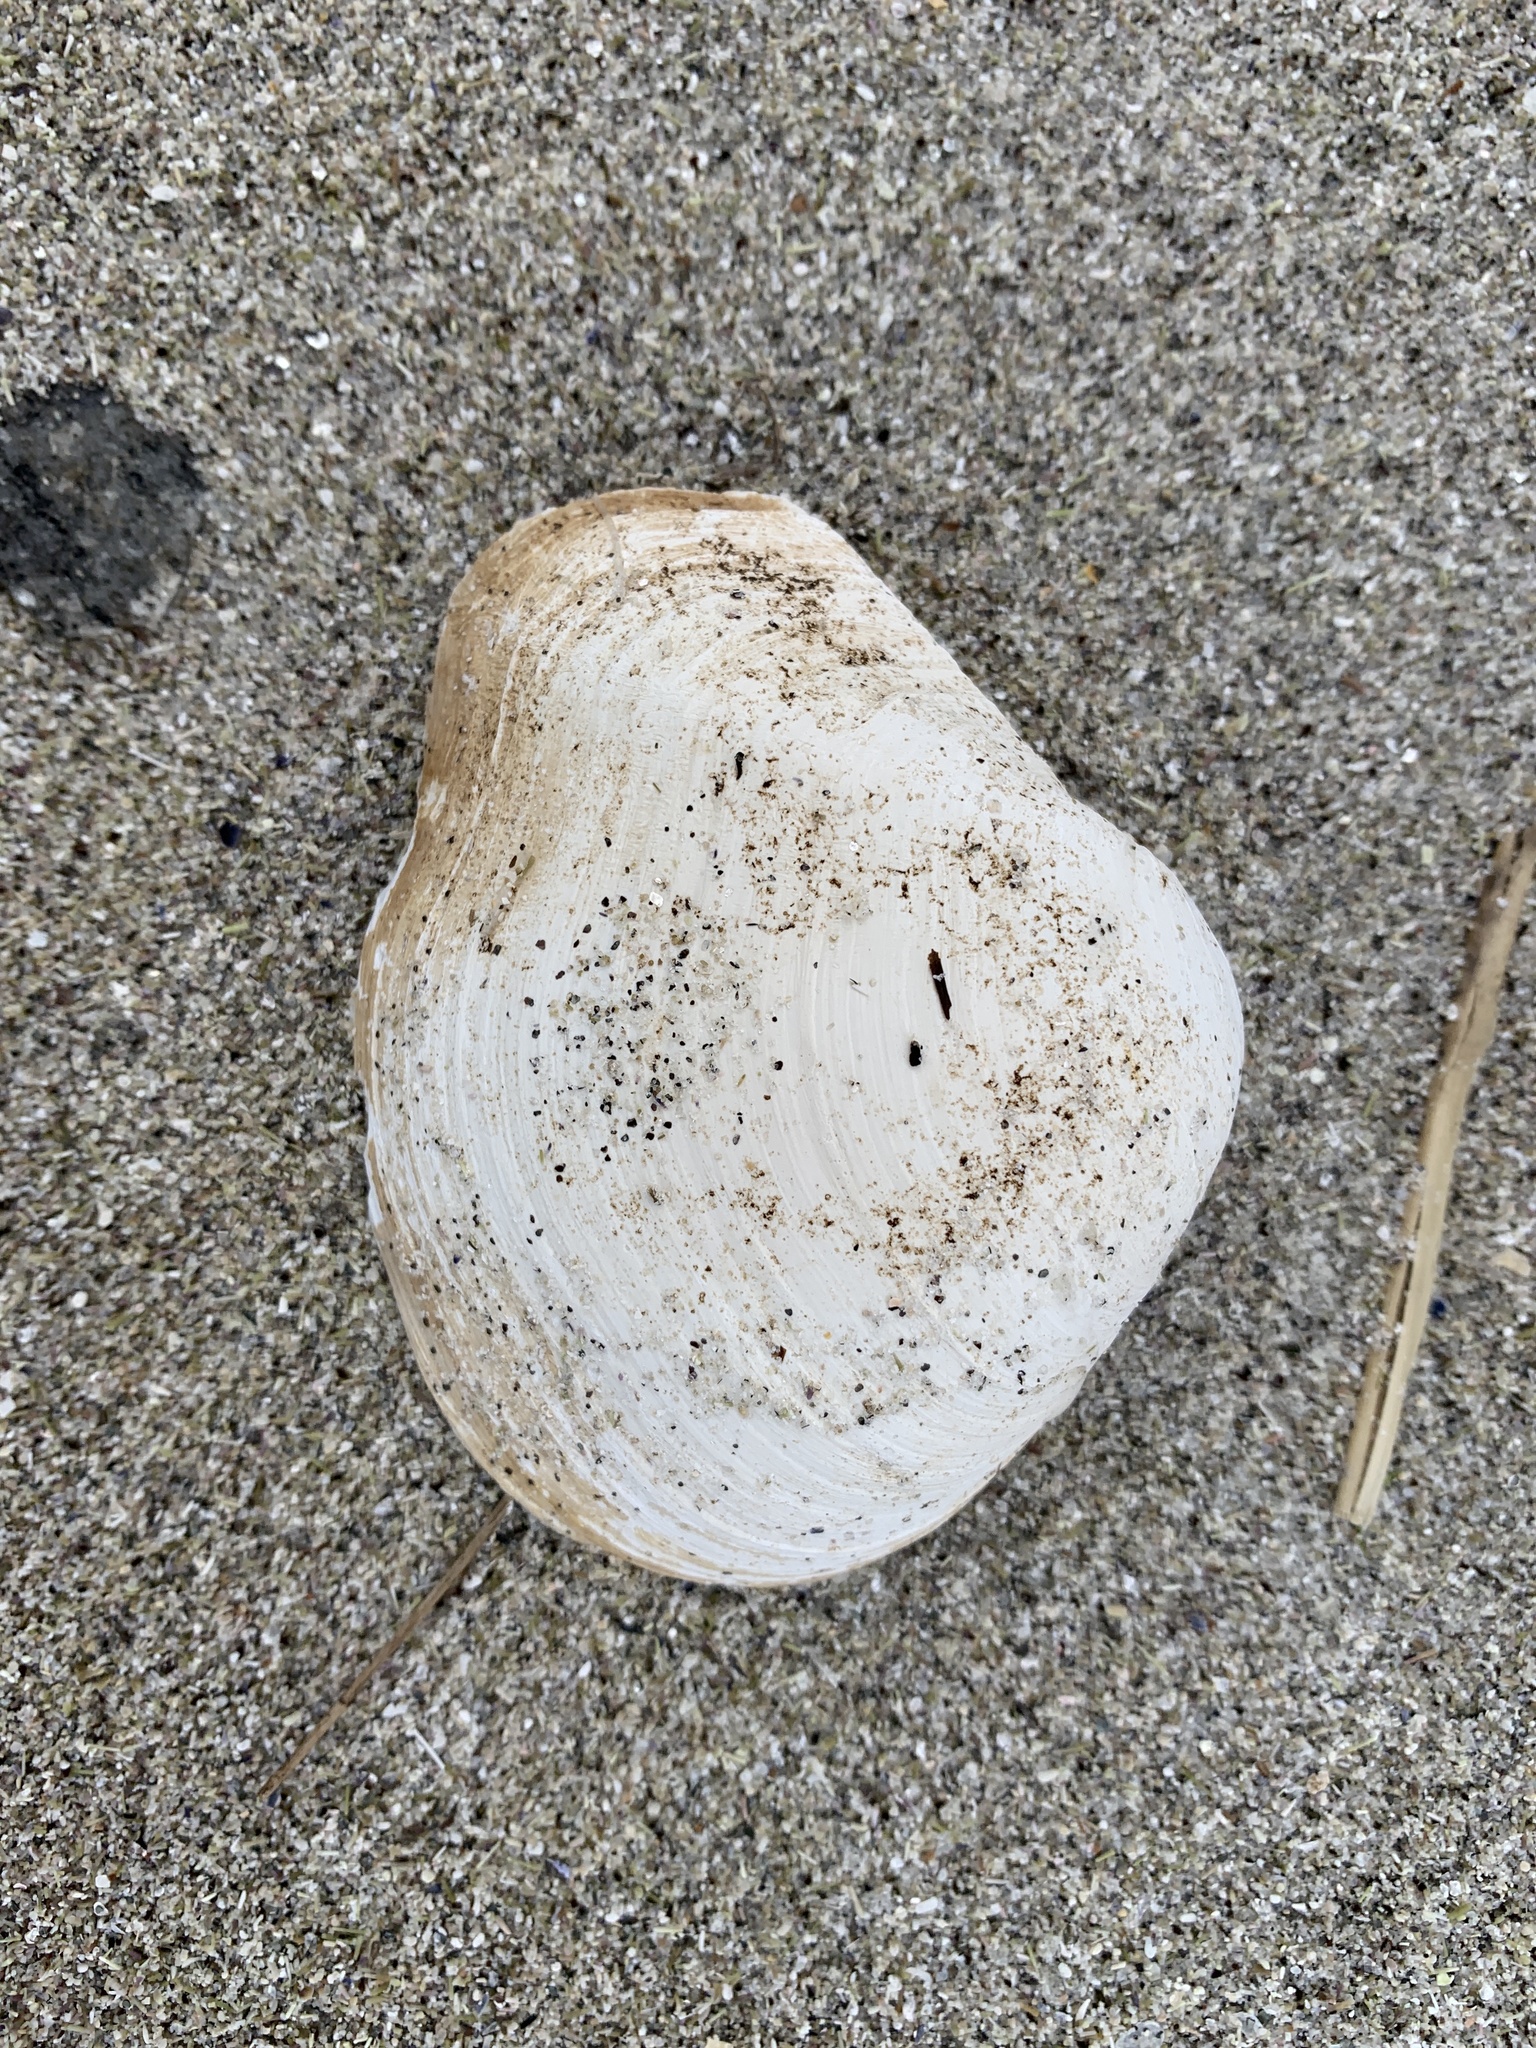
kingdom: Animalia
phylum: Mollusca
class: Bivalvia
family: Thraciidae
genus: Thracia
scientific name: Thracia conradi
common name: Conrad thracia
